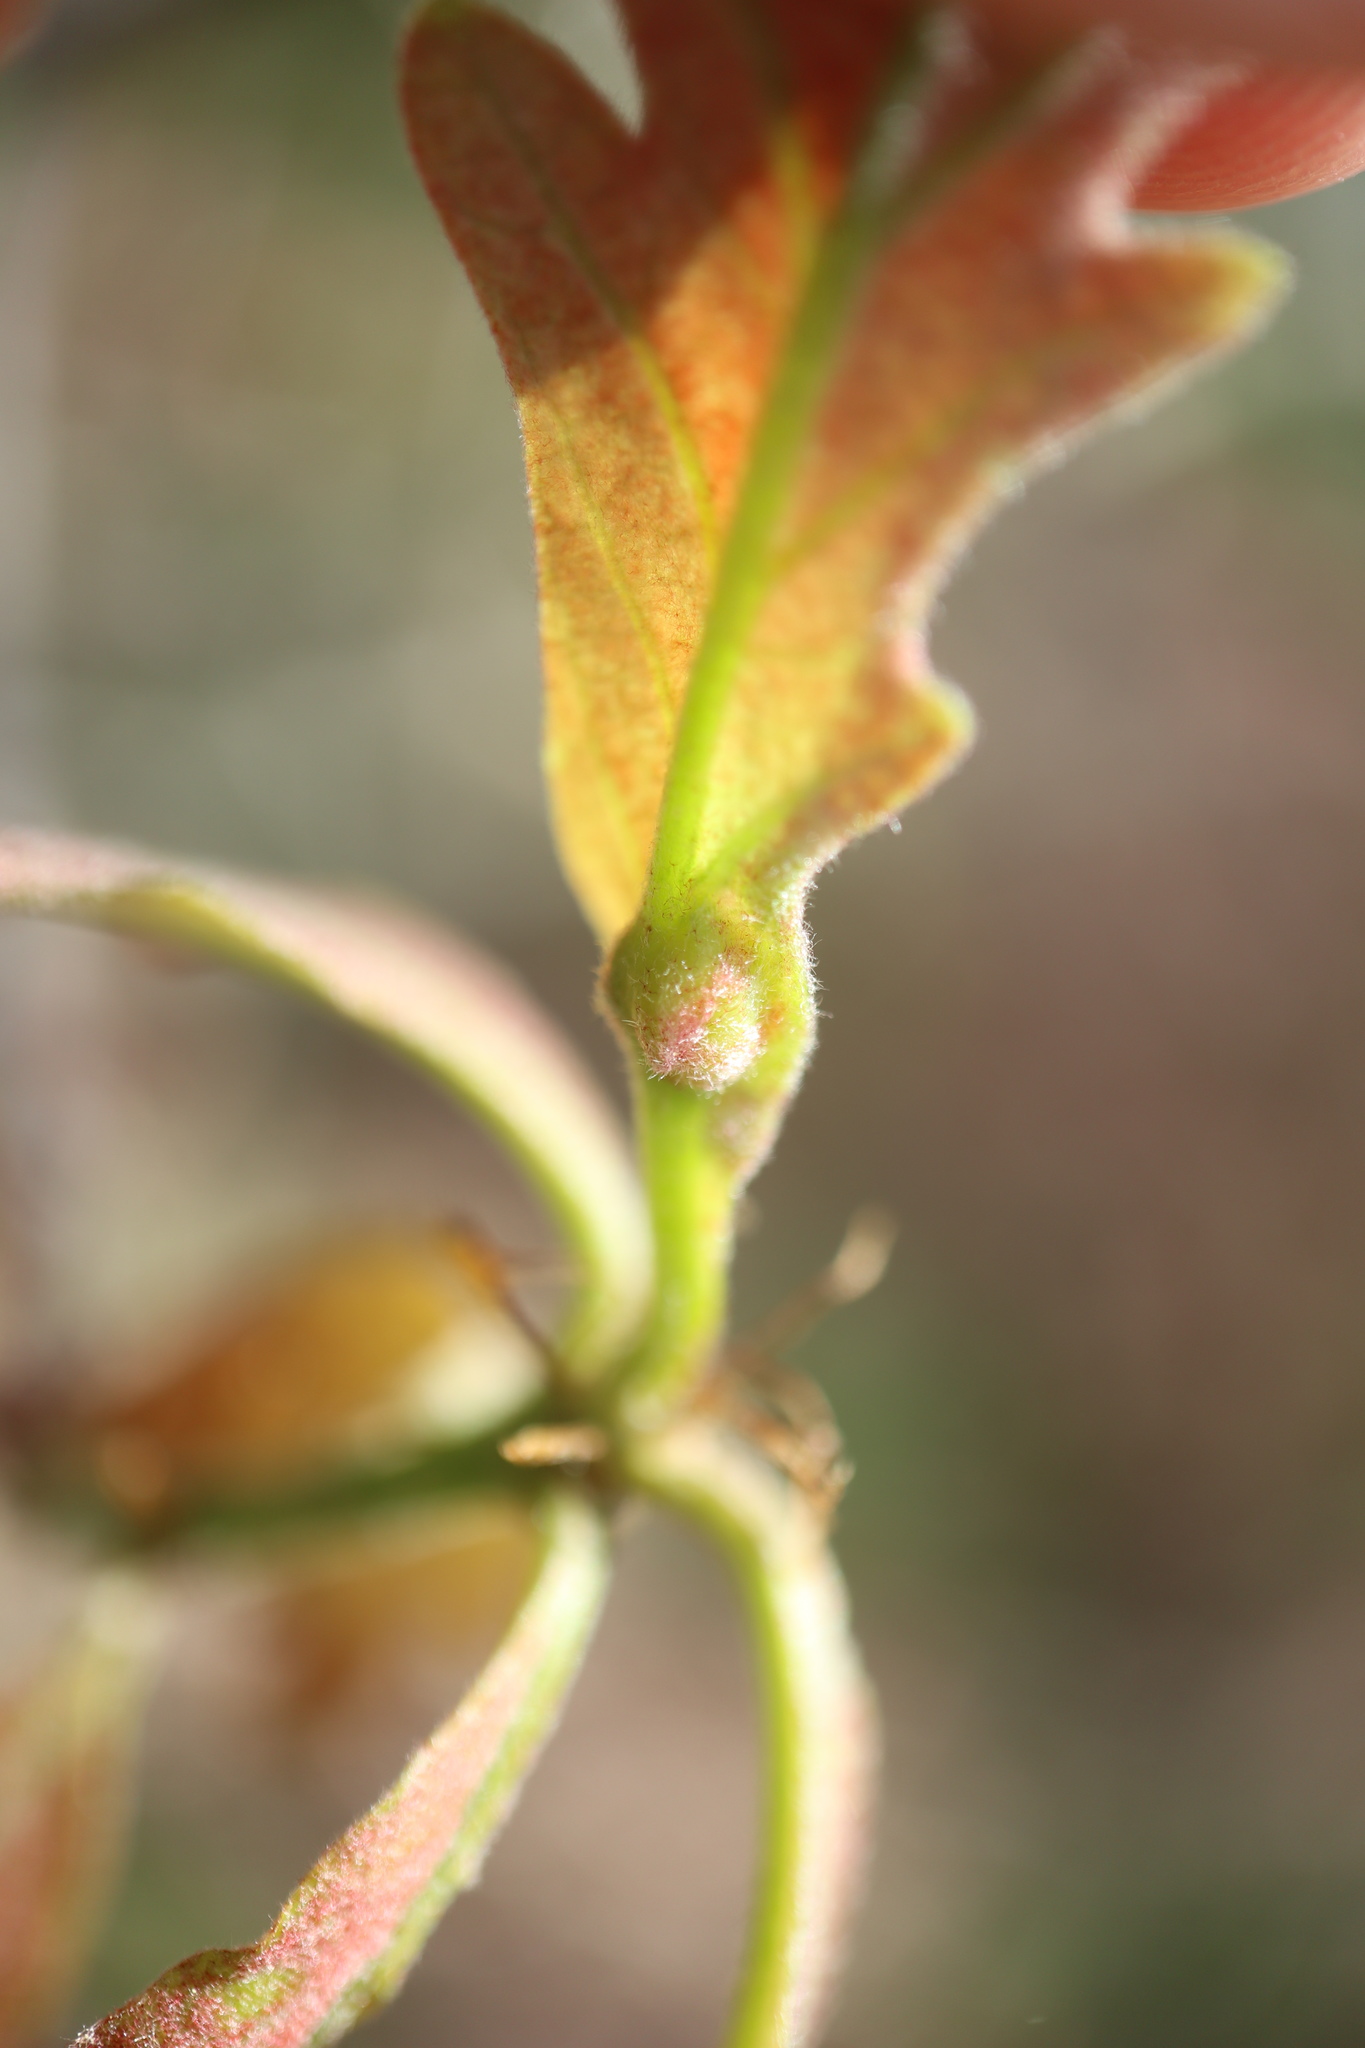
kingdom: Animalia
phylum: Arthropoda
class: Insecta
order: Hymenoptera
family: Cynipidae
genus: Andricus
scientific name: Andricus
